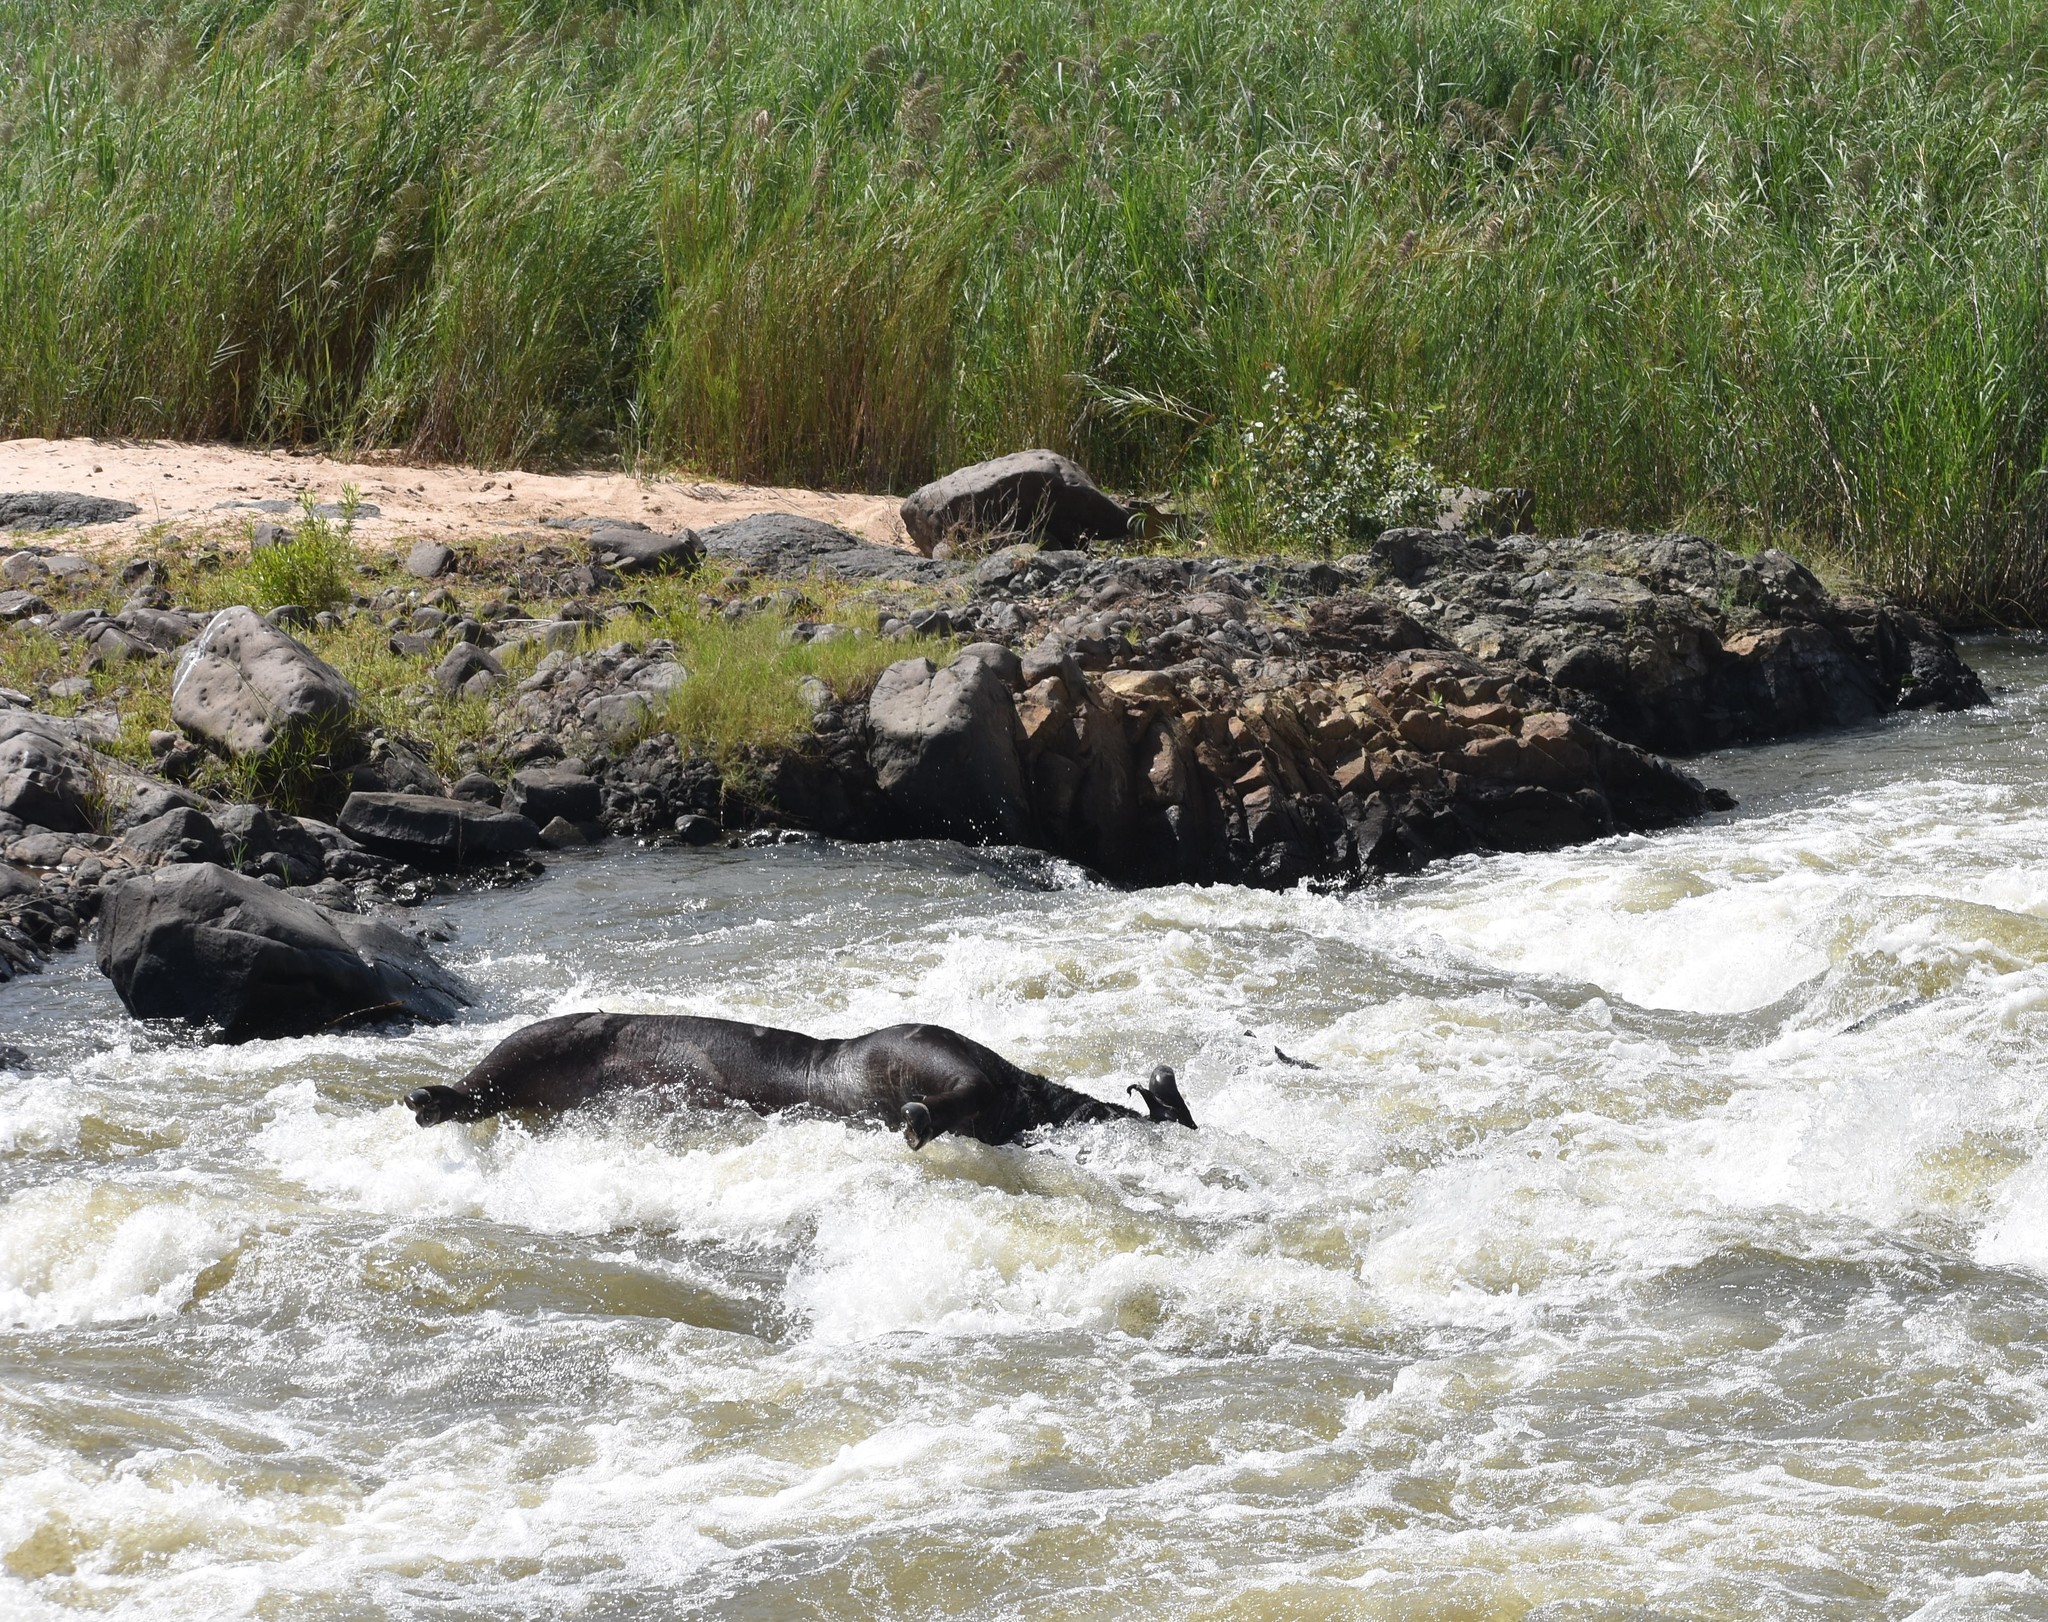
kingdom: Animalia
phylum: Chordata
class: Mammalia
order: Artiodactyla
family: Bovidae
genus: Syncerus
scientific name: Syncerus caffer
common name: African buffalo
